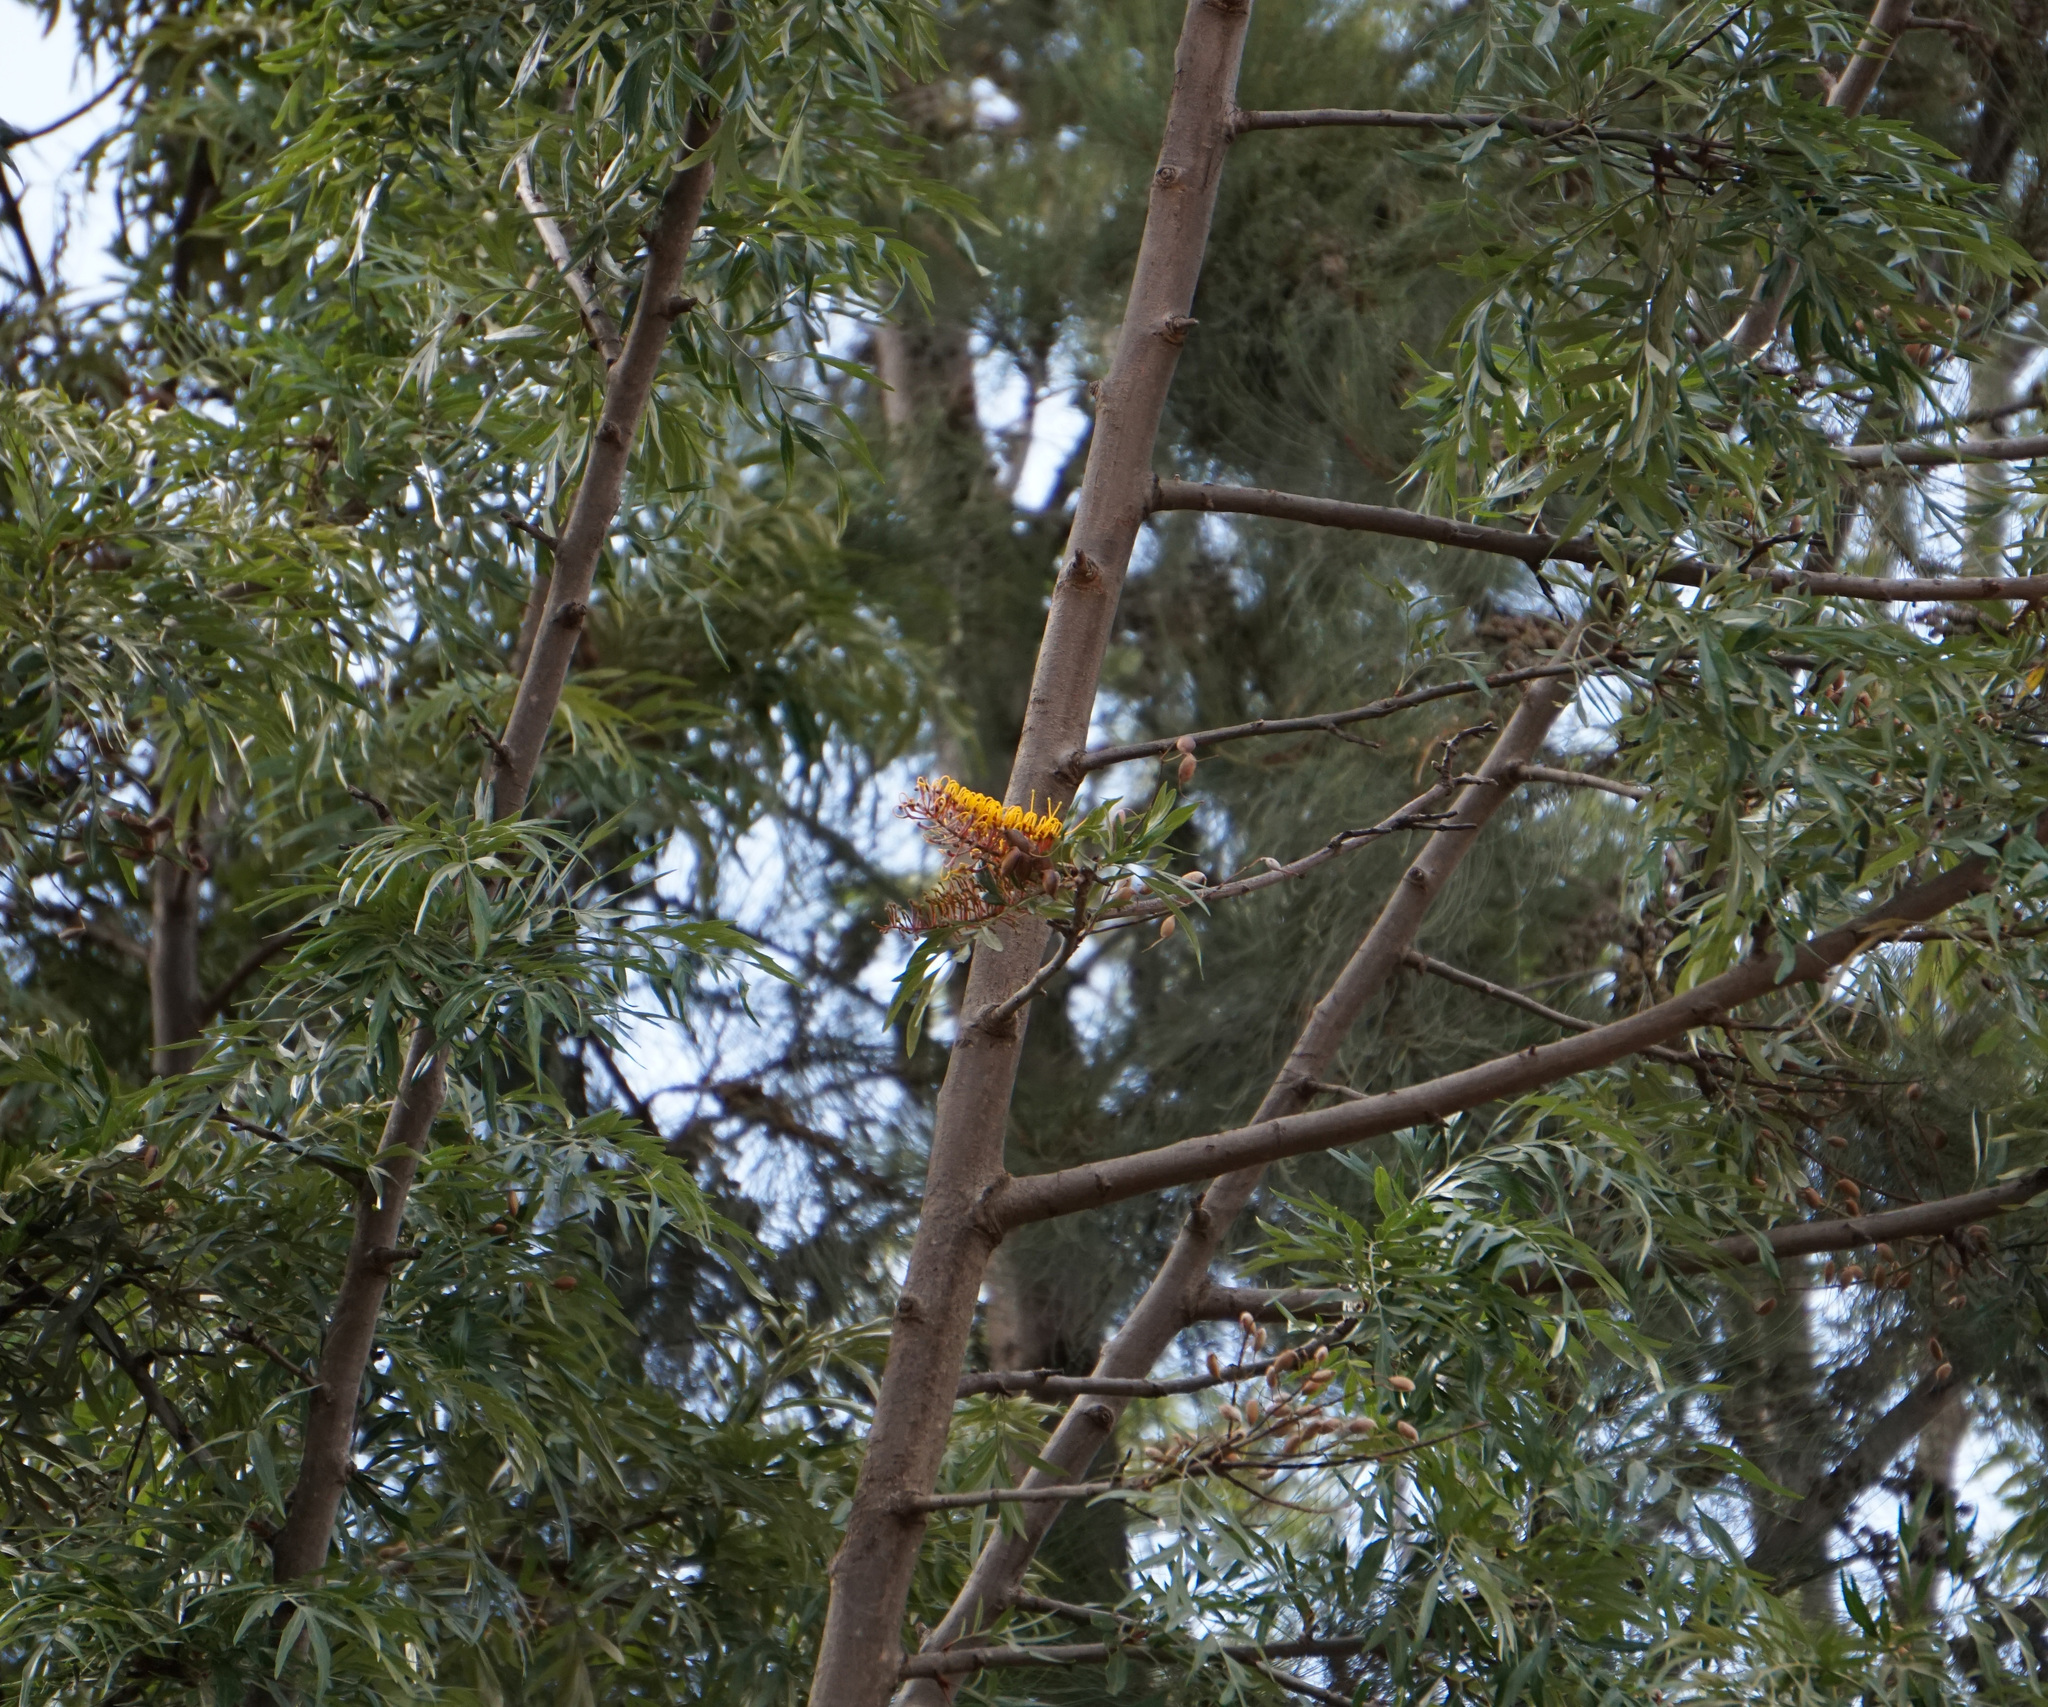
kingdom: Plantae
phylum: Tracheophyta
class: Magnoliopsida
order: Proteales
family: Proteaceae
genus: Grevillea
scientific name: Grevillea robusta
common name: Silkoak
